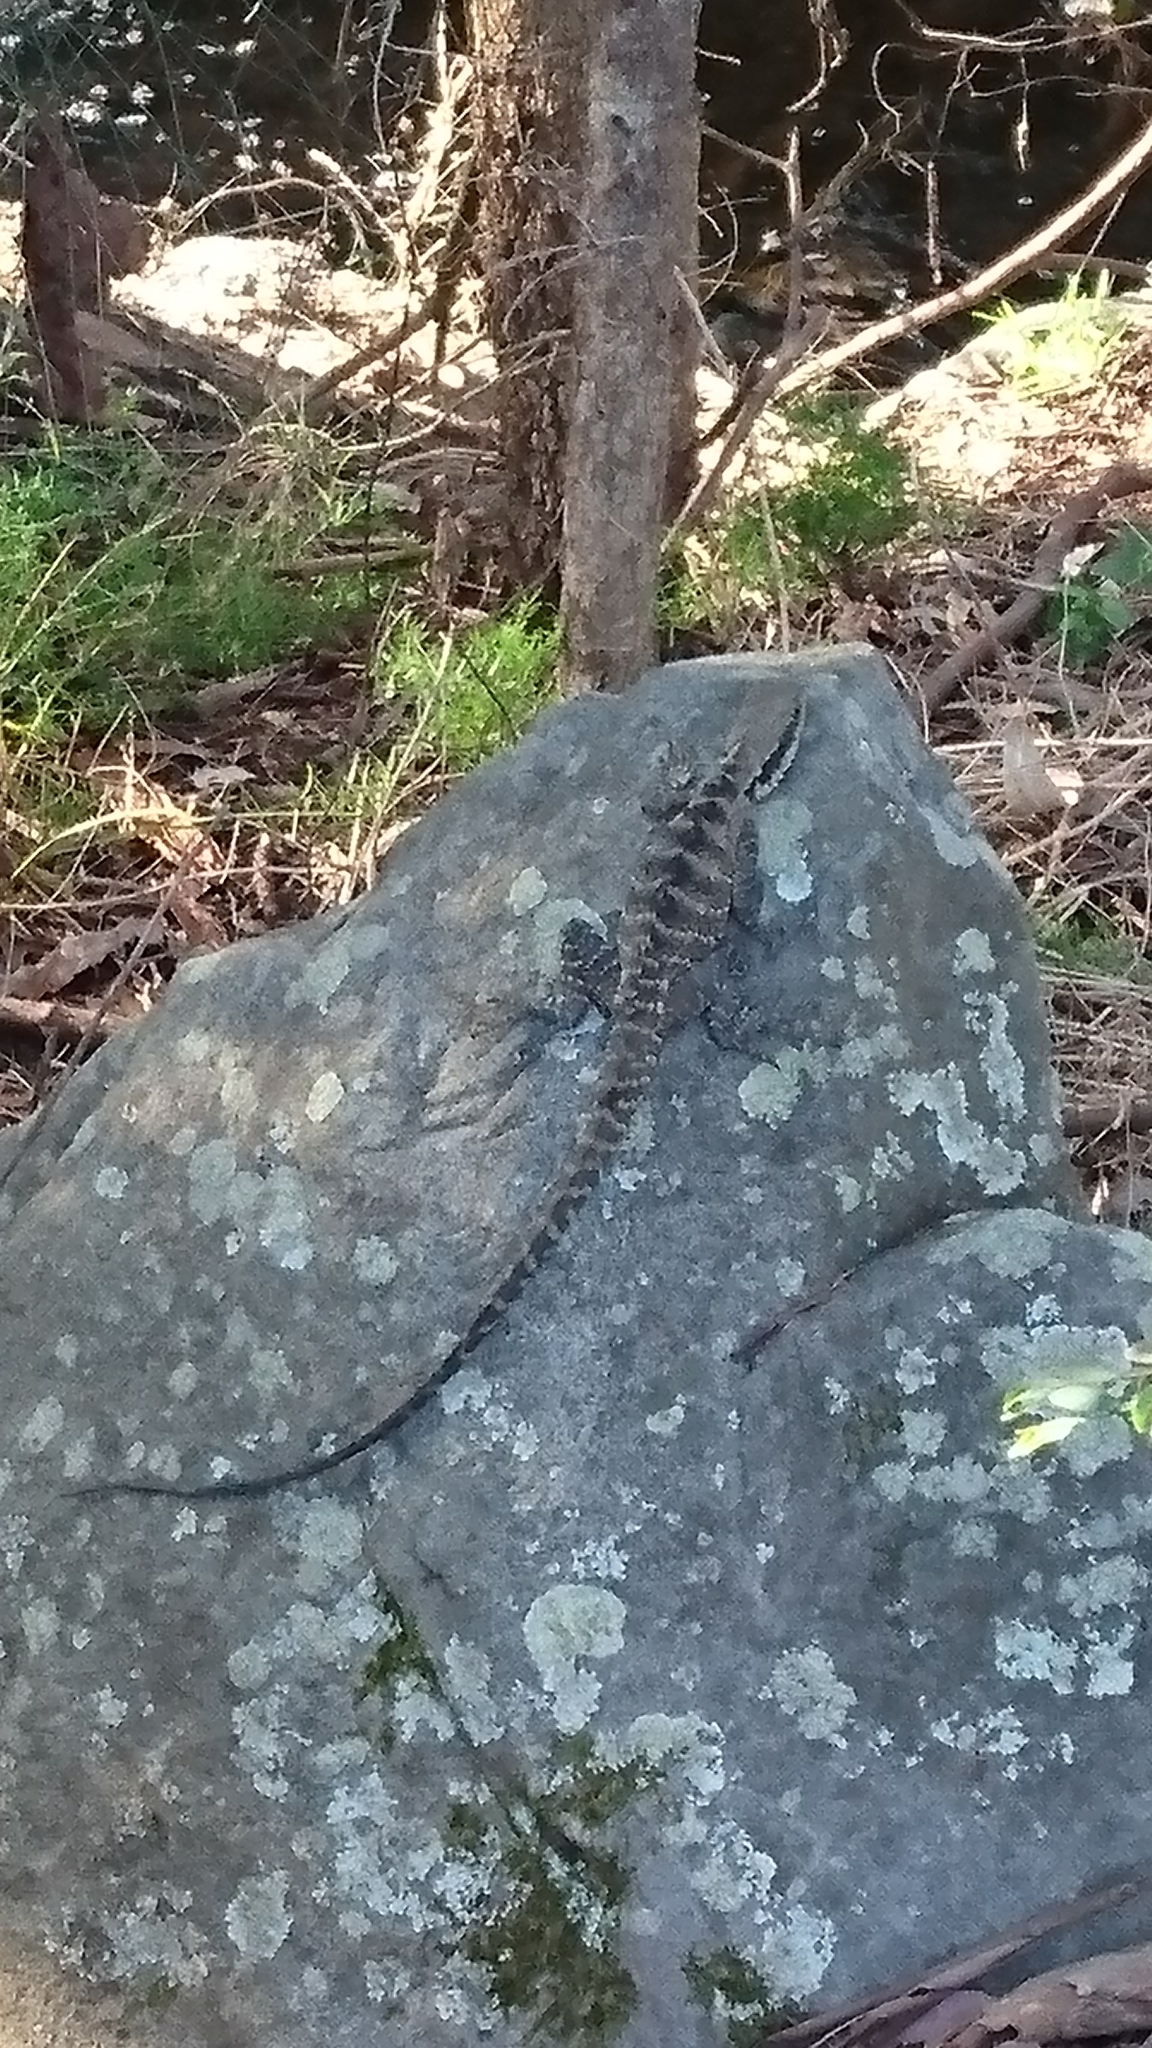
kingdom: Animalia
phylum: Chordata
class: Squamata
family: Agamidae
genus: Intellagama
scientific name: Intellagama lesueurii
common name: Eastern water dragon
